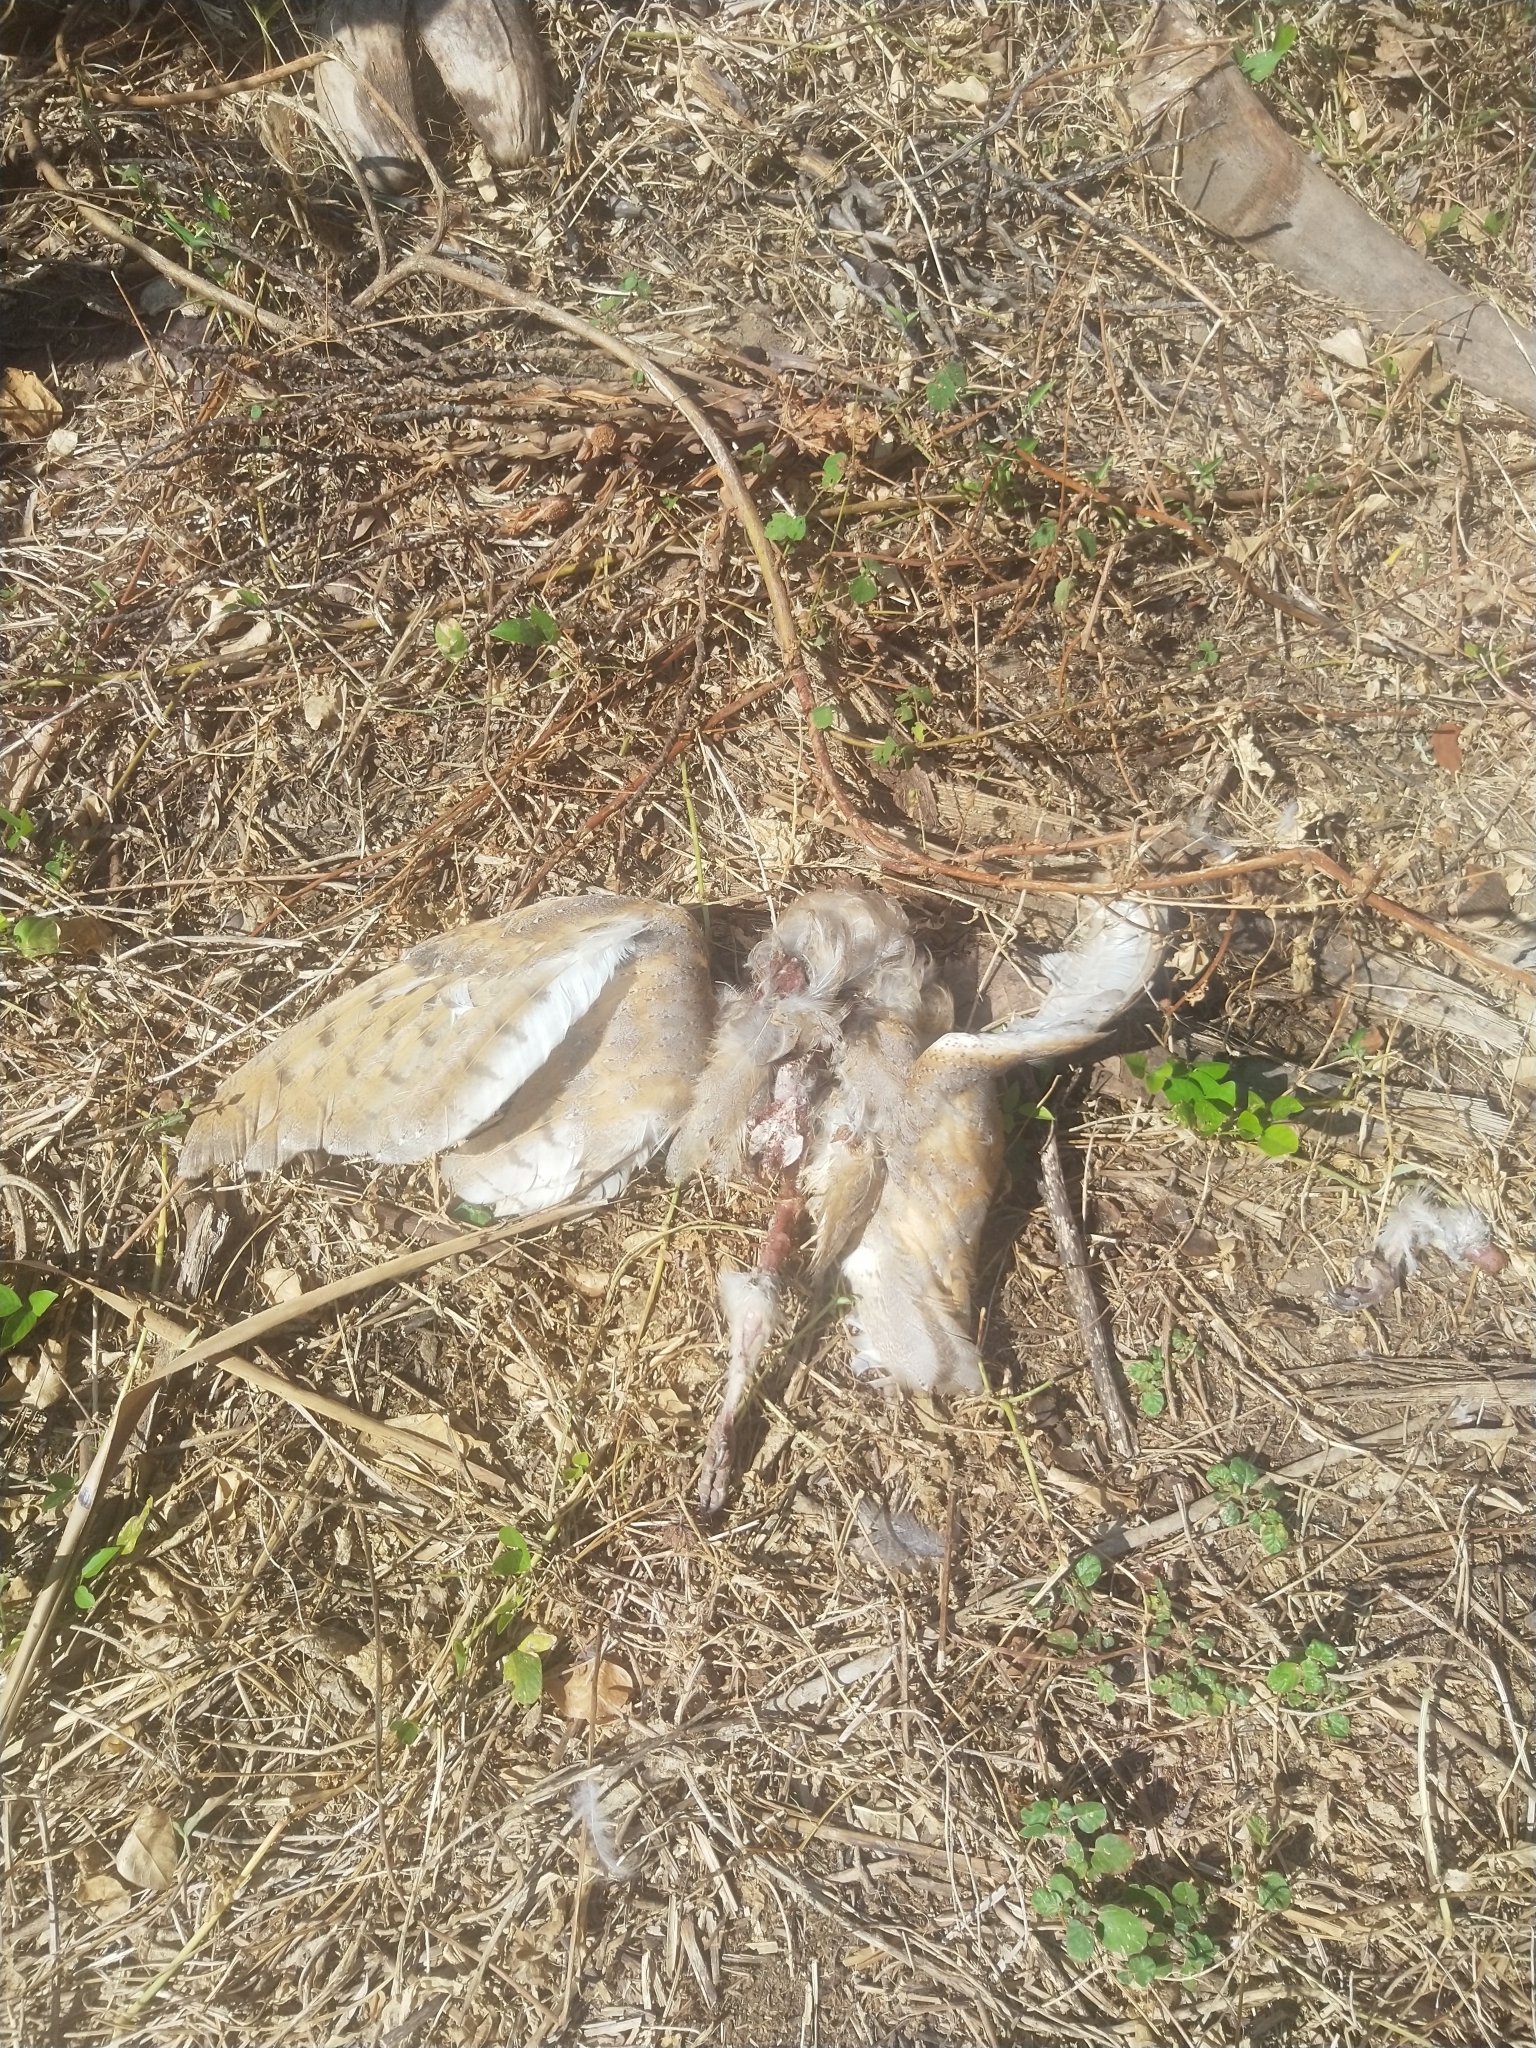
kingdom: Animalia
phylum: Chordata
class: Aves
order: Strigiformes
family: Tytonidae
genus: Tyto
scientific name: Tyto alba
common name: Barn owl
